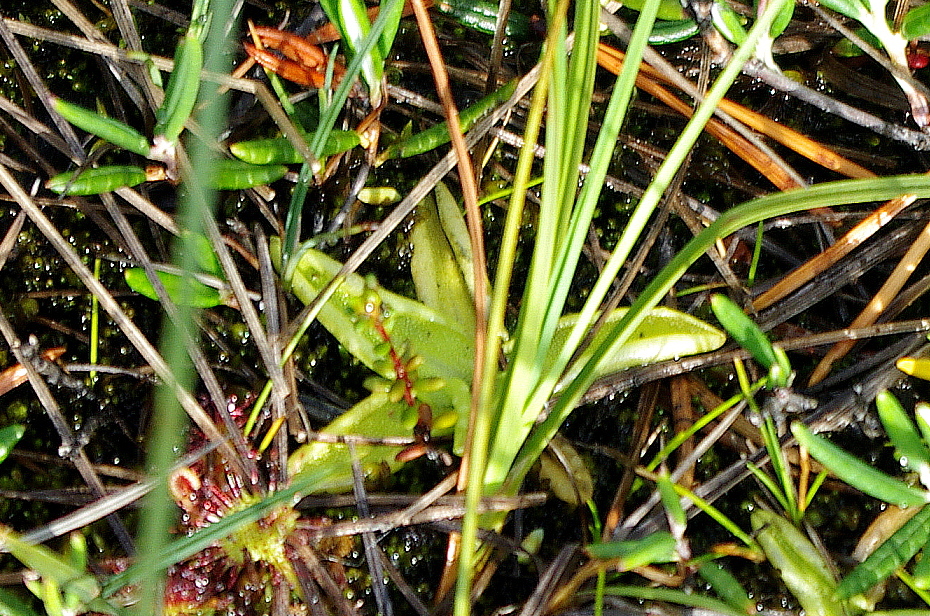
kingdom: Plantae
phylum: Tracheophyta
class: Magnoliopsida
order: Lamiales
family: Lentibulariaceae
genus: Pinguicula
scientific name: Pinguicula vulgaris
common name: Common butterwort
